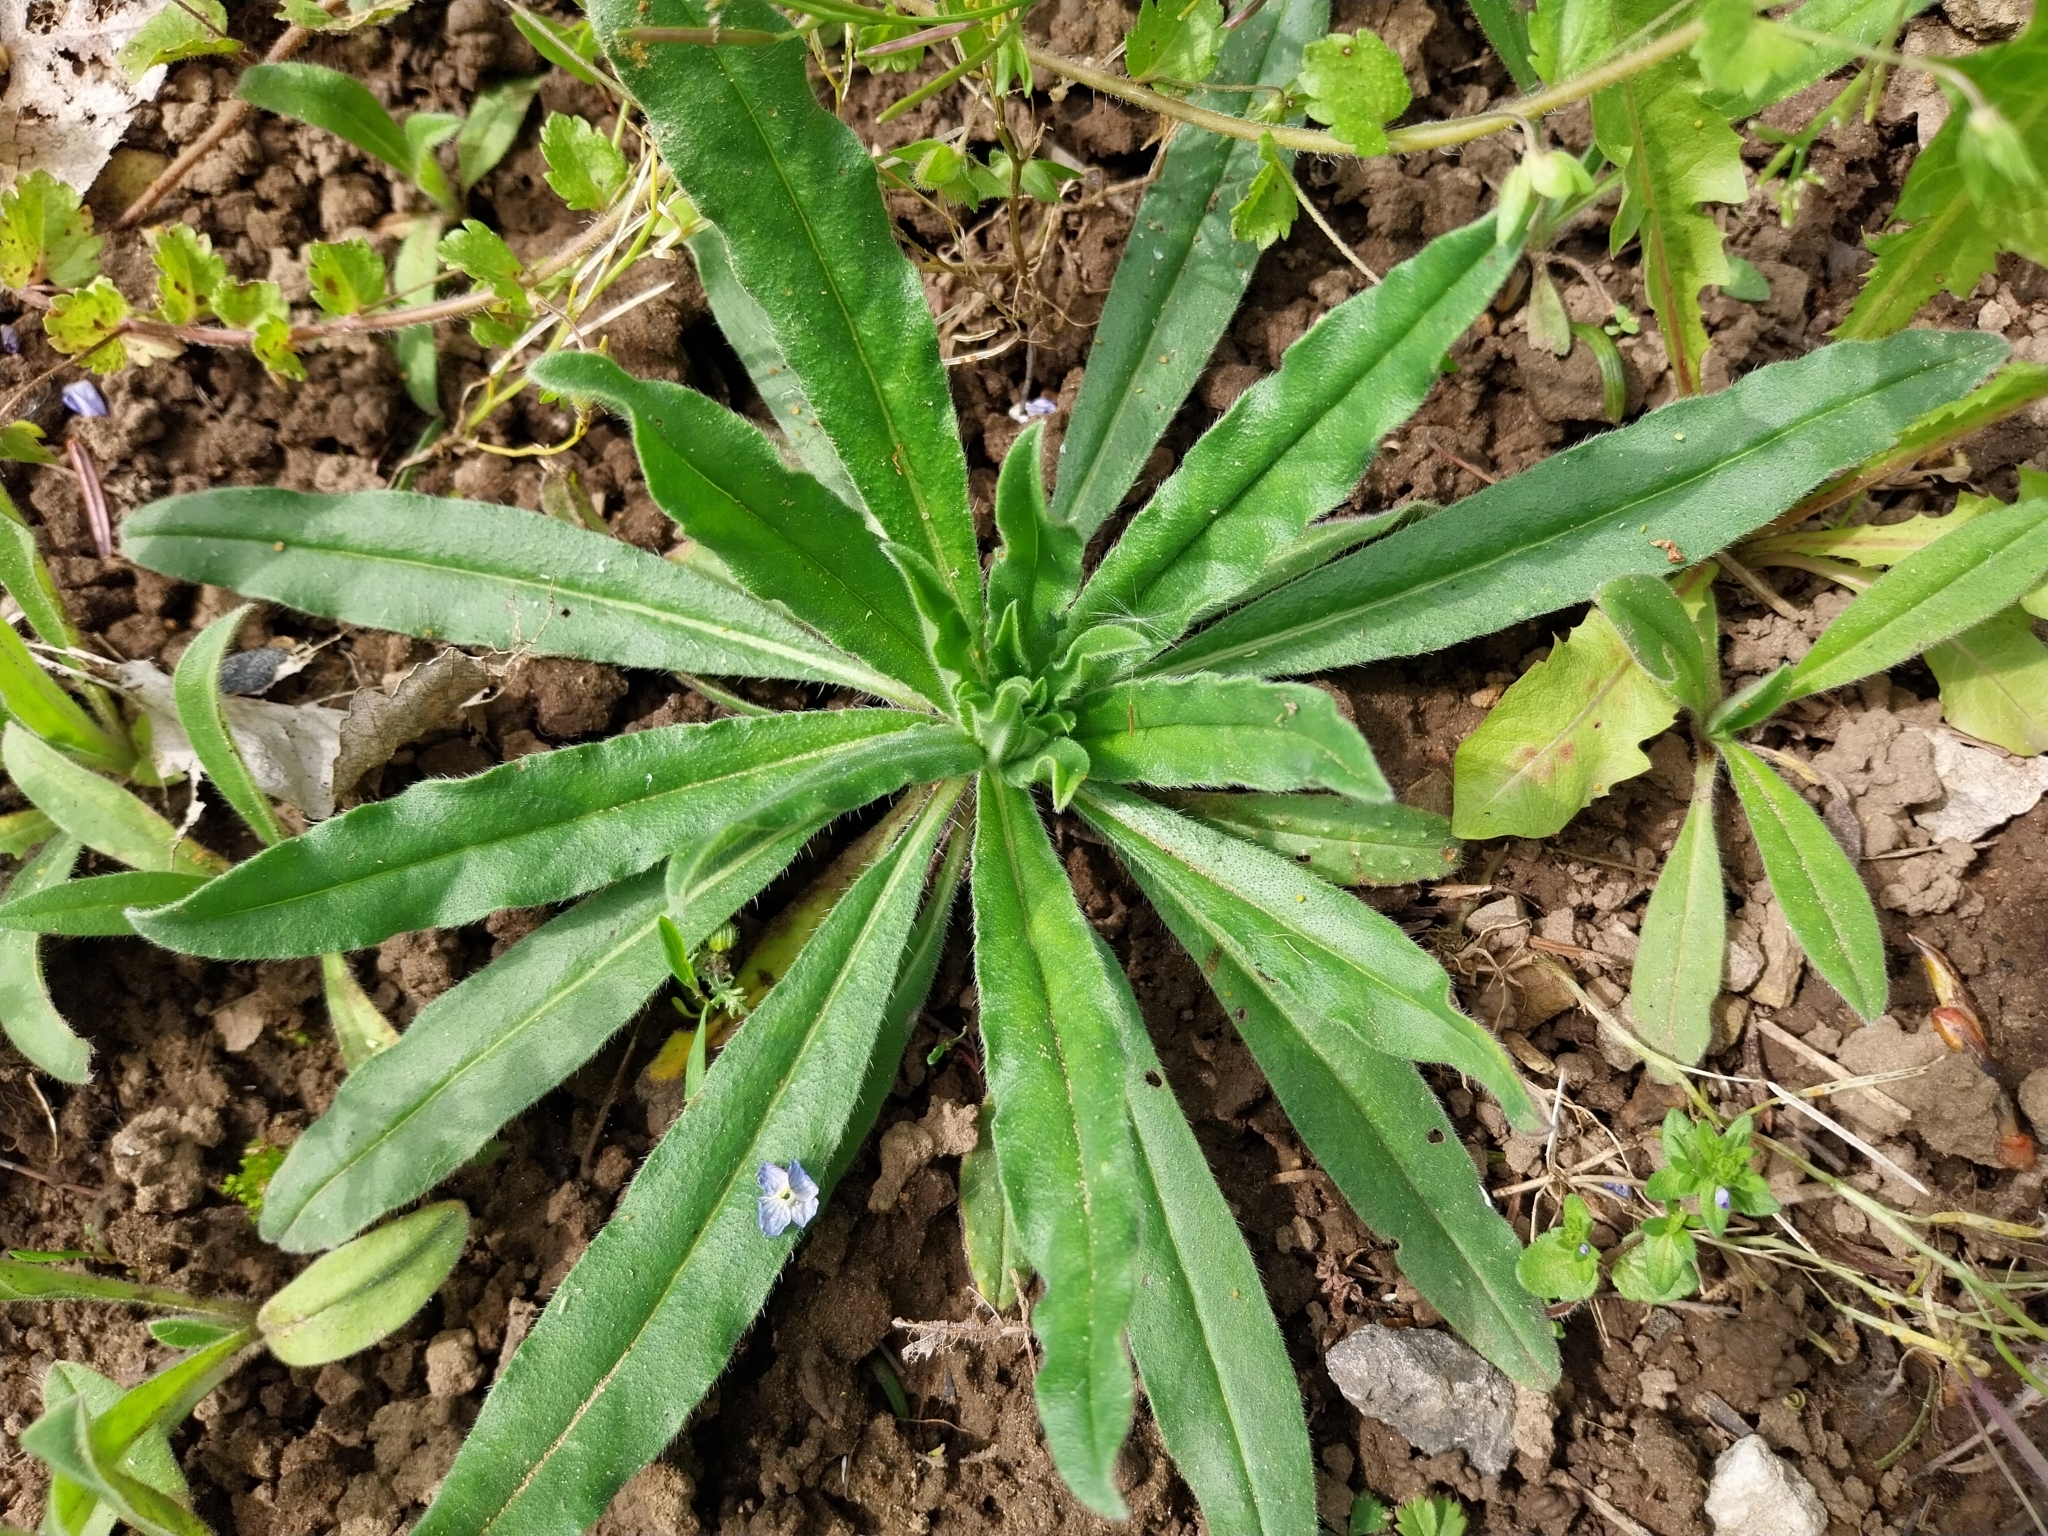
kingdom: Plantae
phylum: Tracheophyta
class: Magnoliopsida
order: Boraginales
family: Boraginaceae
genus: Echium
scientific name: Echium vulgare
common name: Common viper's bugloss
